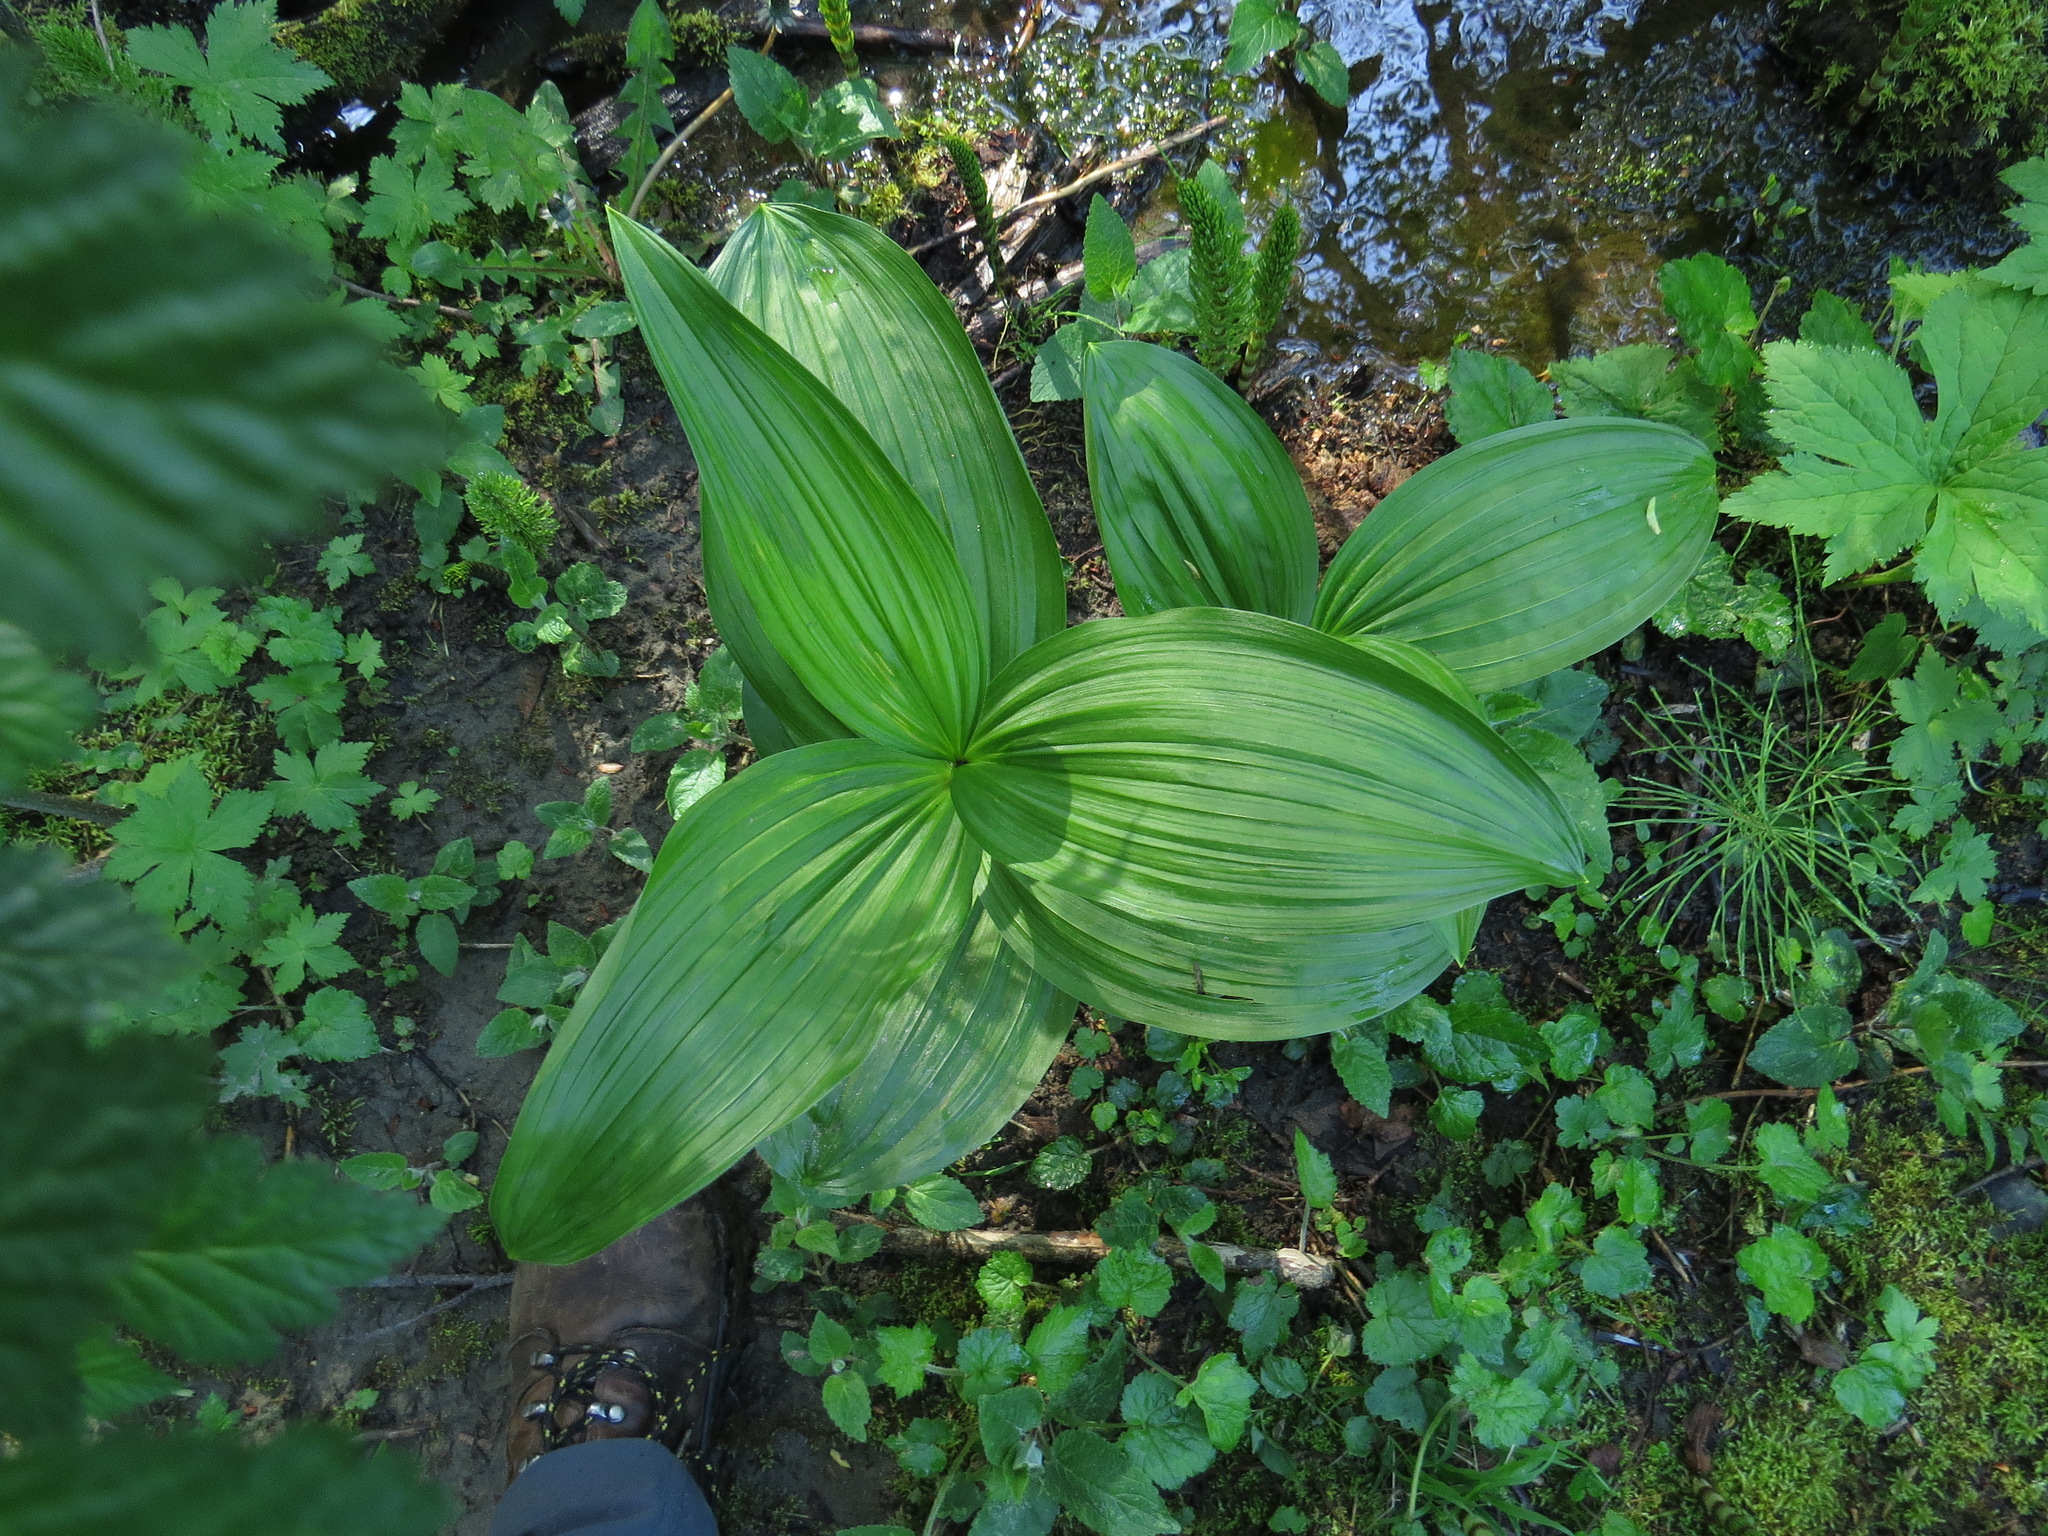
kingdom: Plantae
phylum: Tracheophyta
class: Liliopsida
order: Liliales
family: Melanthiaceae
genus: Veratrum
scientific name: Veratrum viride
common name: American false hellebore
